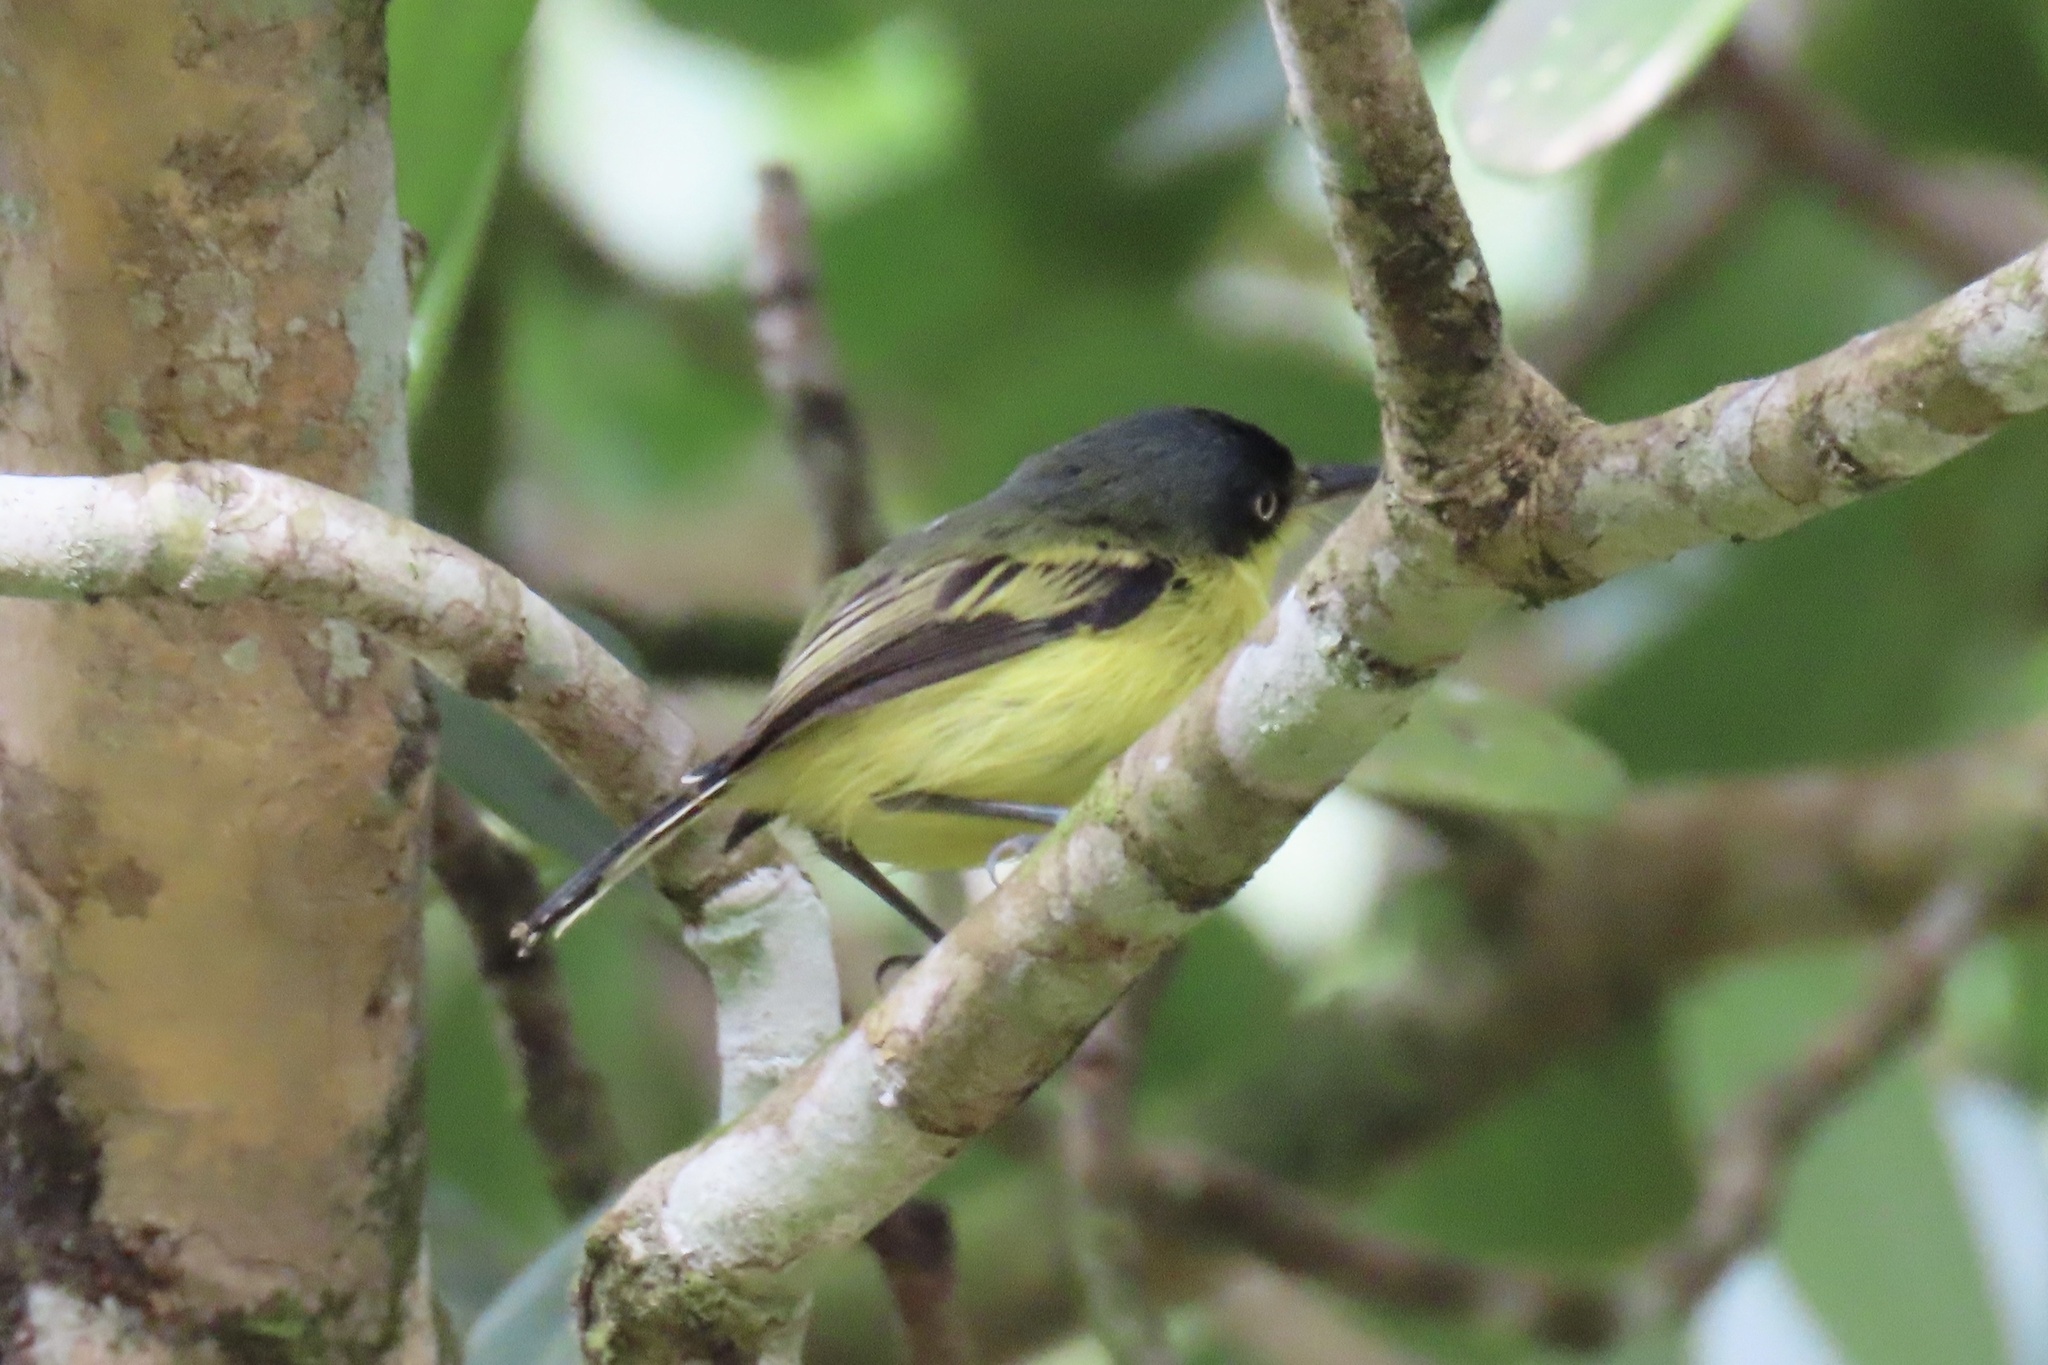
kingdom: Animalia
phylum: Chordata
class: Aves
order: Passeriformes
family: Tyrannidae
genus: Todirostrum
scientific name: Todirostrum cinereum
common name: Common tody-flycatcher
